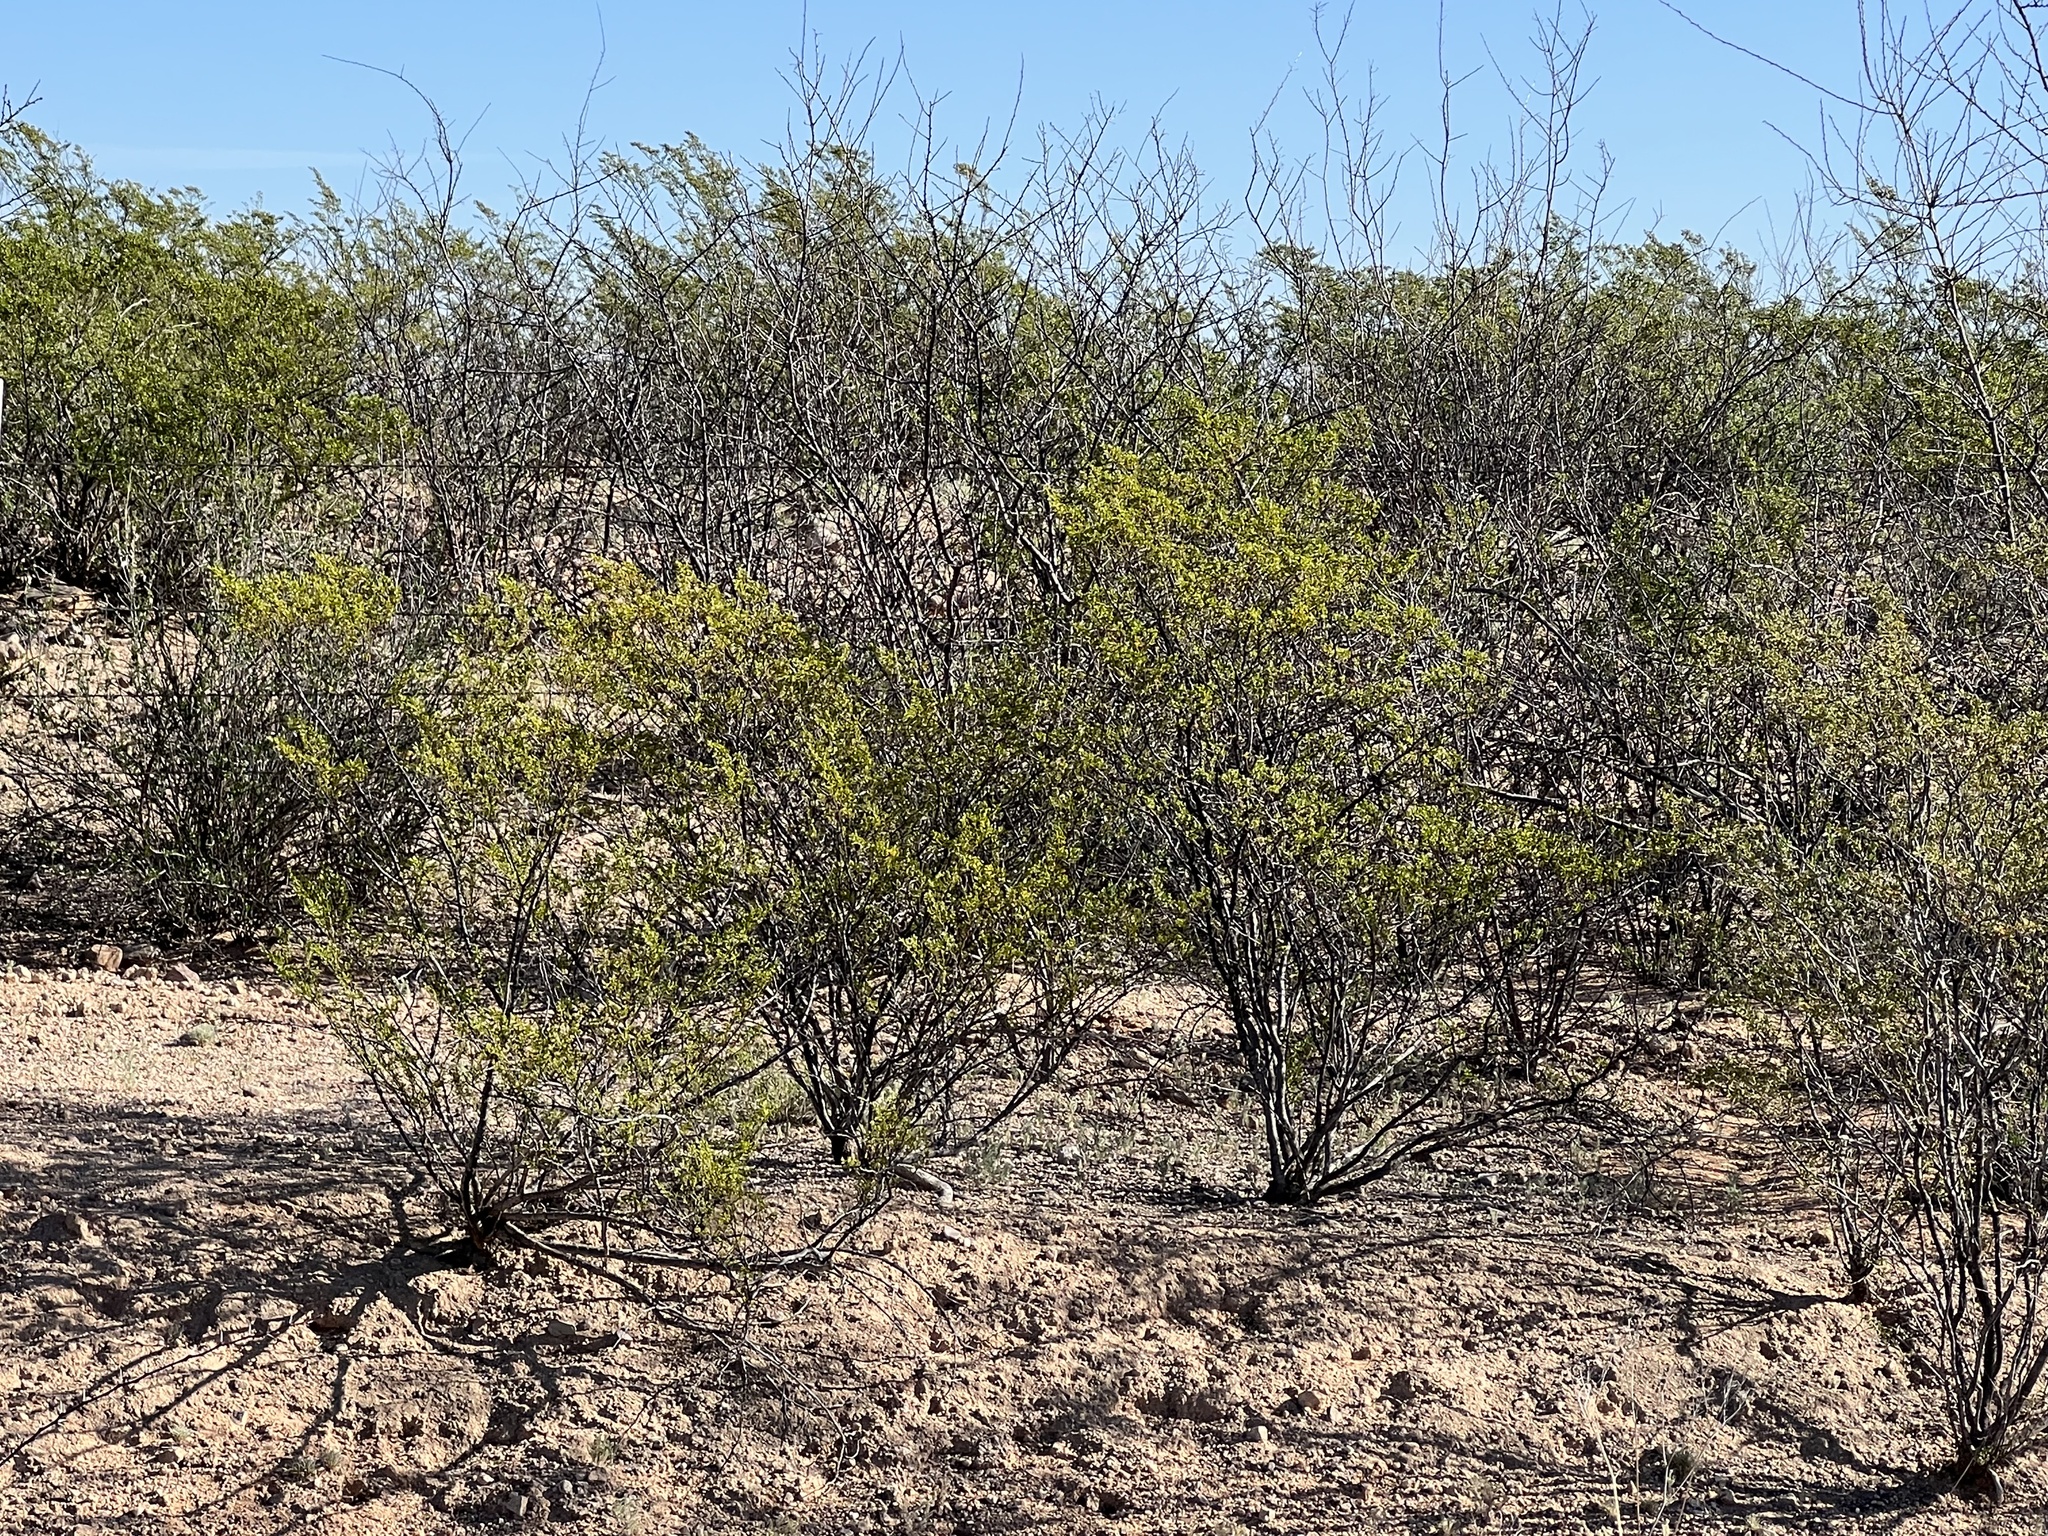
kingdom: Plantae
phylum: Tracheophyta
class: Magnoliopsida
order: Zygophyllales
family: Zygophyllaceae
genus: Larrea
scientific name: Larrea tridentata
